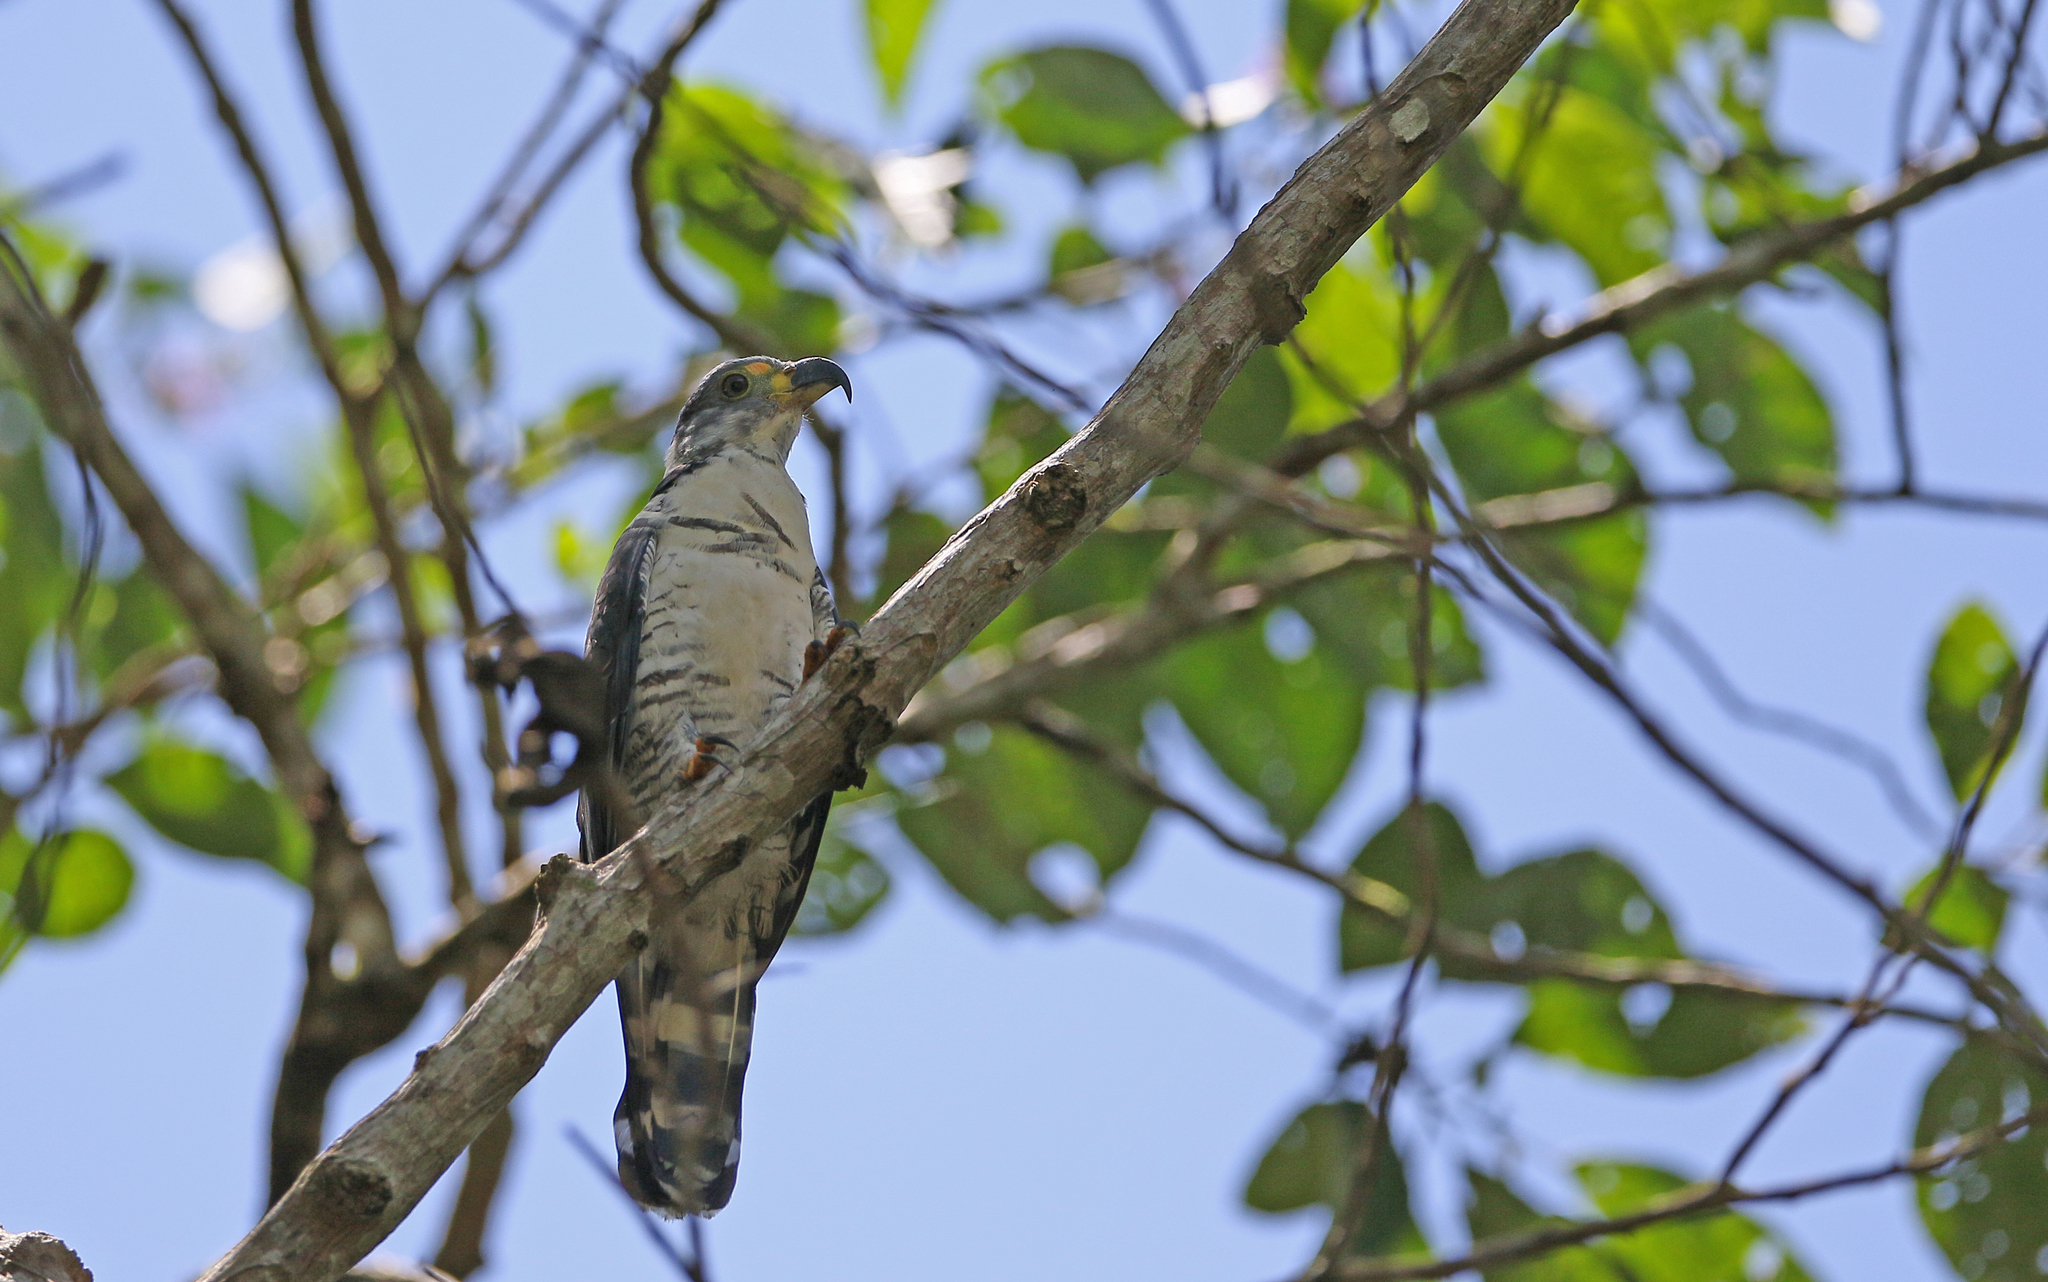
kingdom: Animalia
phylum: Chordata
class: Aves
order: Accipitriformes
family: Accipitridae
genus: Chondrohierax
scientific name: Chondrohierax uncinatus
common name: Hook-billed kite
